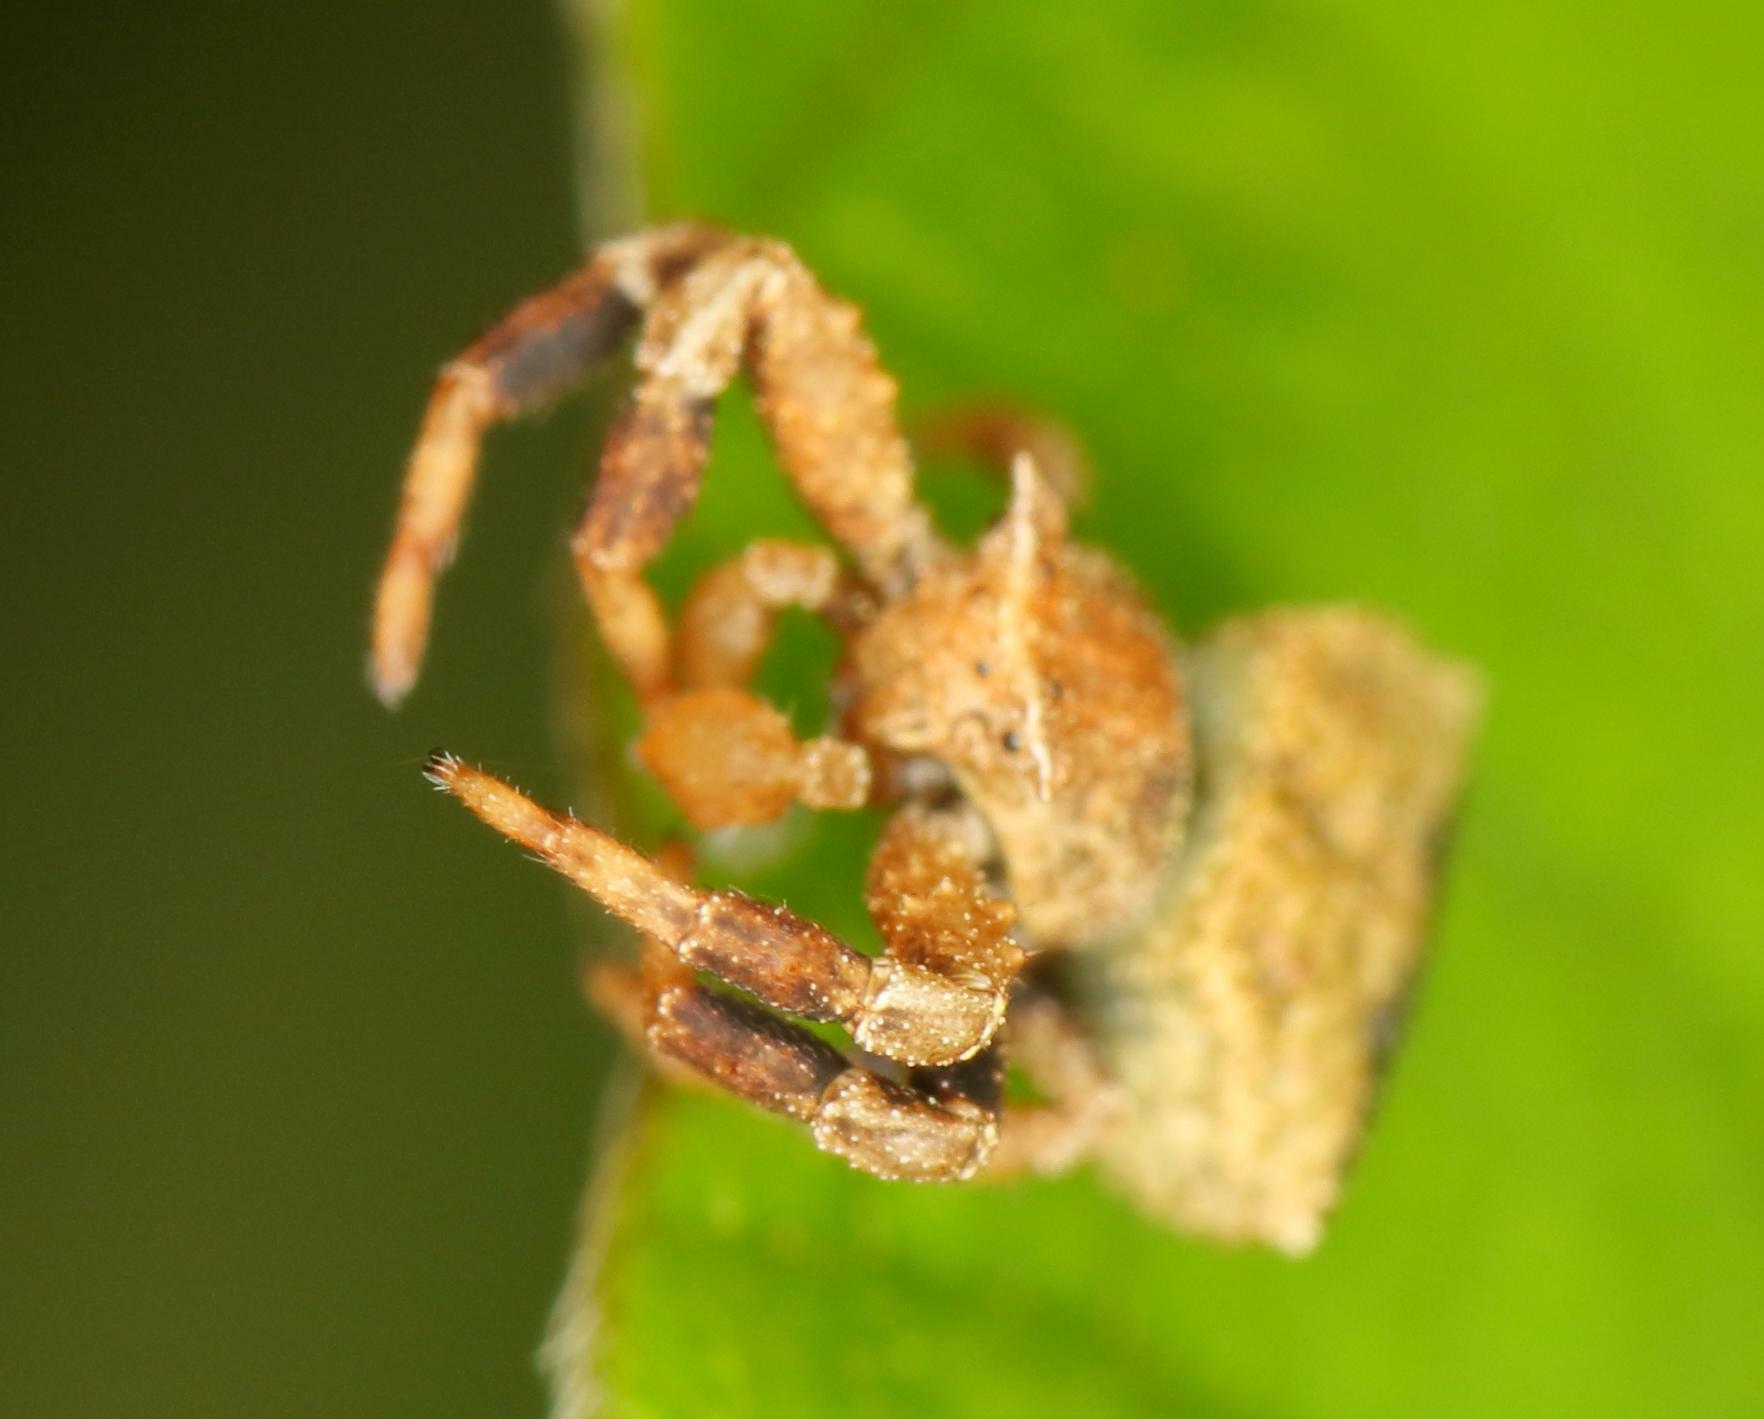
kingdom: Animalia
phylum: Arthropoda
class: Arachnida
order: Araneae
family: Thomisidae
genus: Thomisus
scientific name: Thomisus scrupeus
